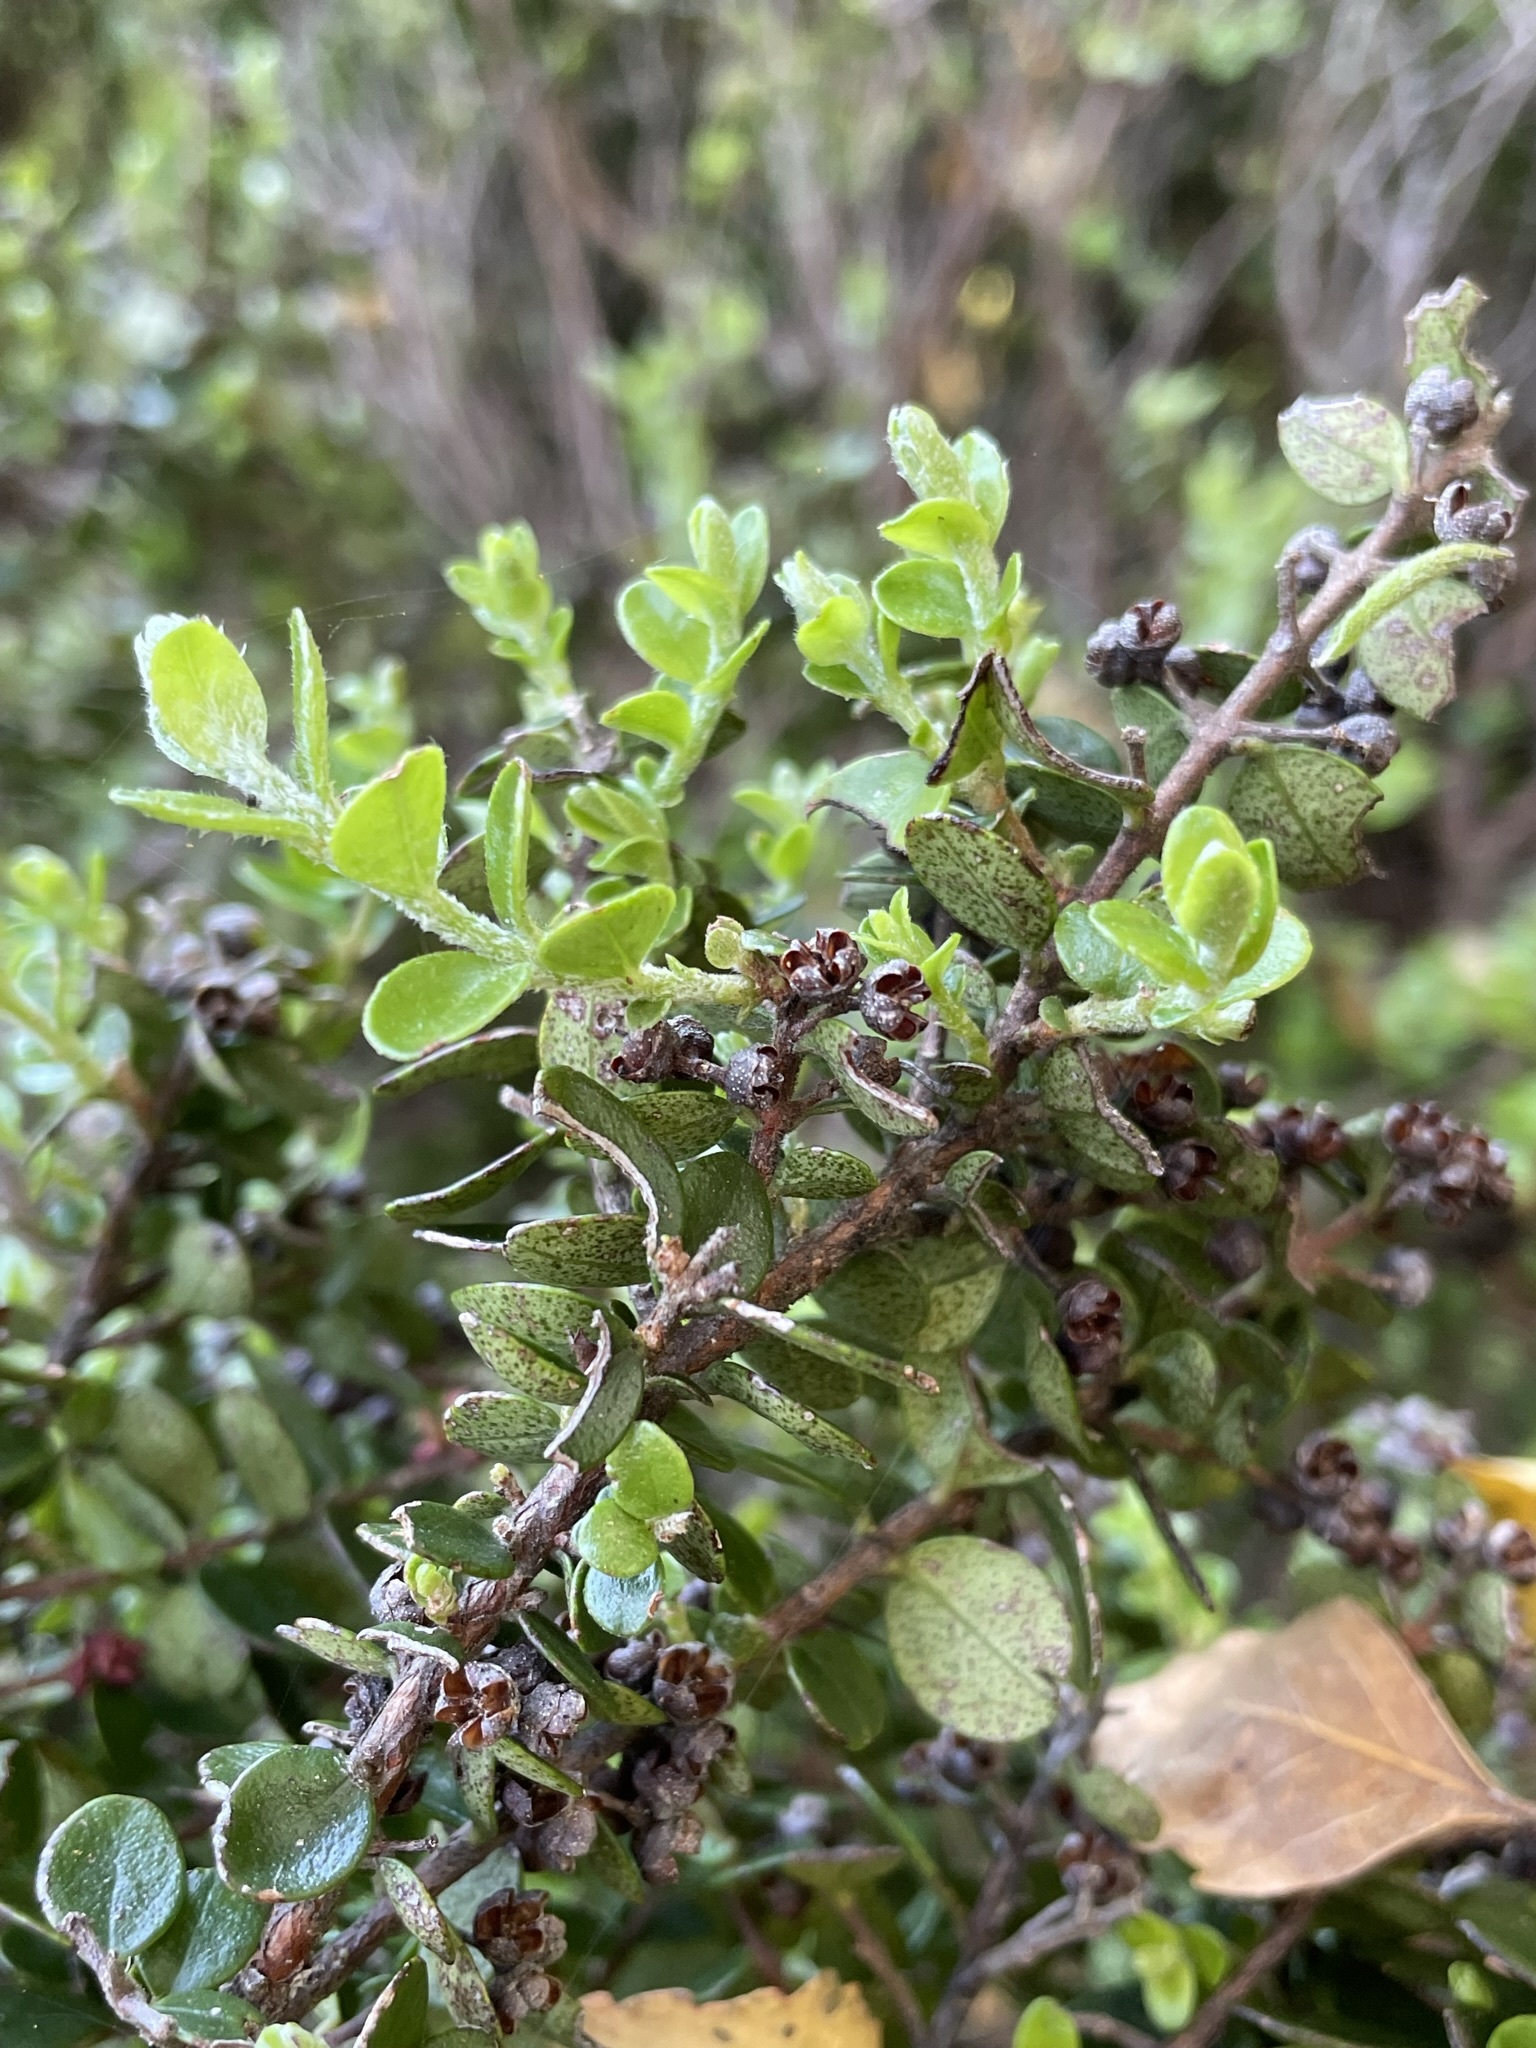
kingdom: Plantae
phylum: Tracheophyta
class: Magnoliopsida
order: Myrtales
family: Myrtaceae
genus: Metrosideros
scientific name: Metrosideros perforata
